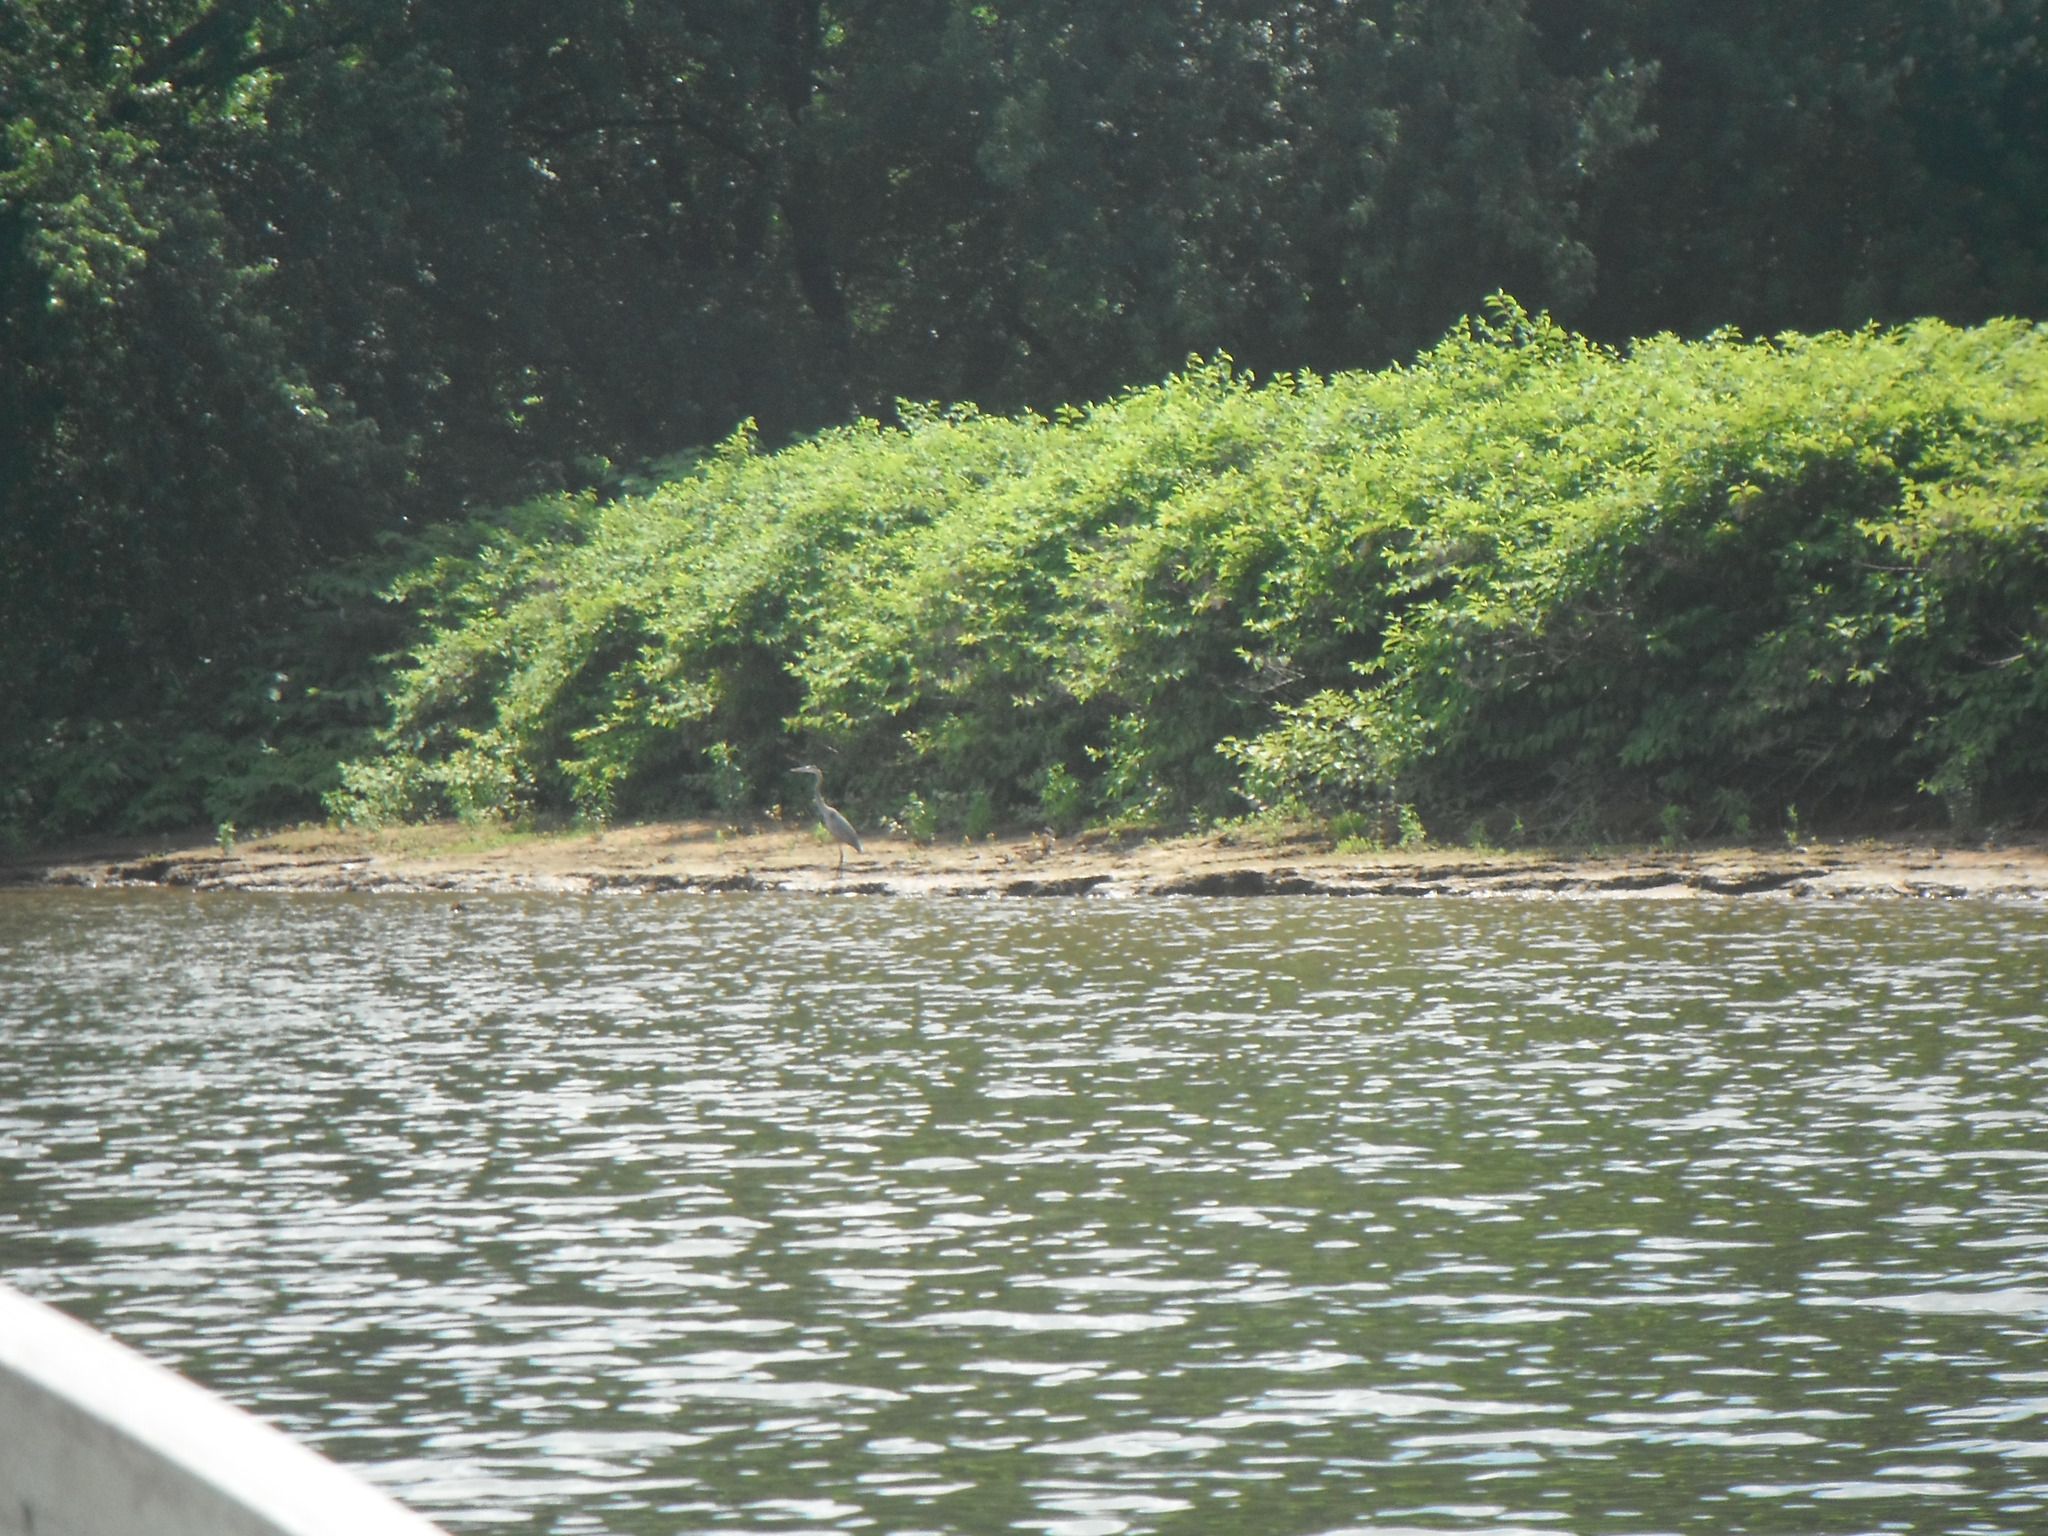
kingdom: Animalia
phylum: Chordata
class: Aves
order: Pelecaniformes
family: Ardeidae
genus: Ardea
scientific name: Ardea herodias
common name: Great blue heron
